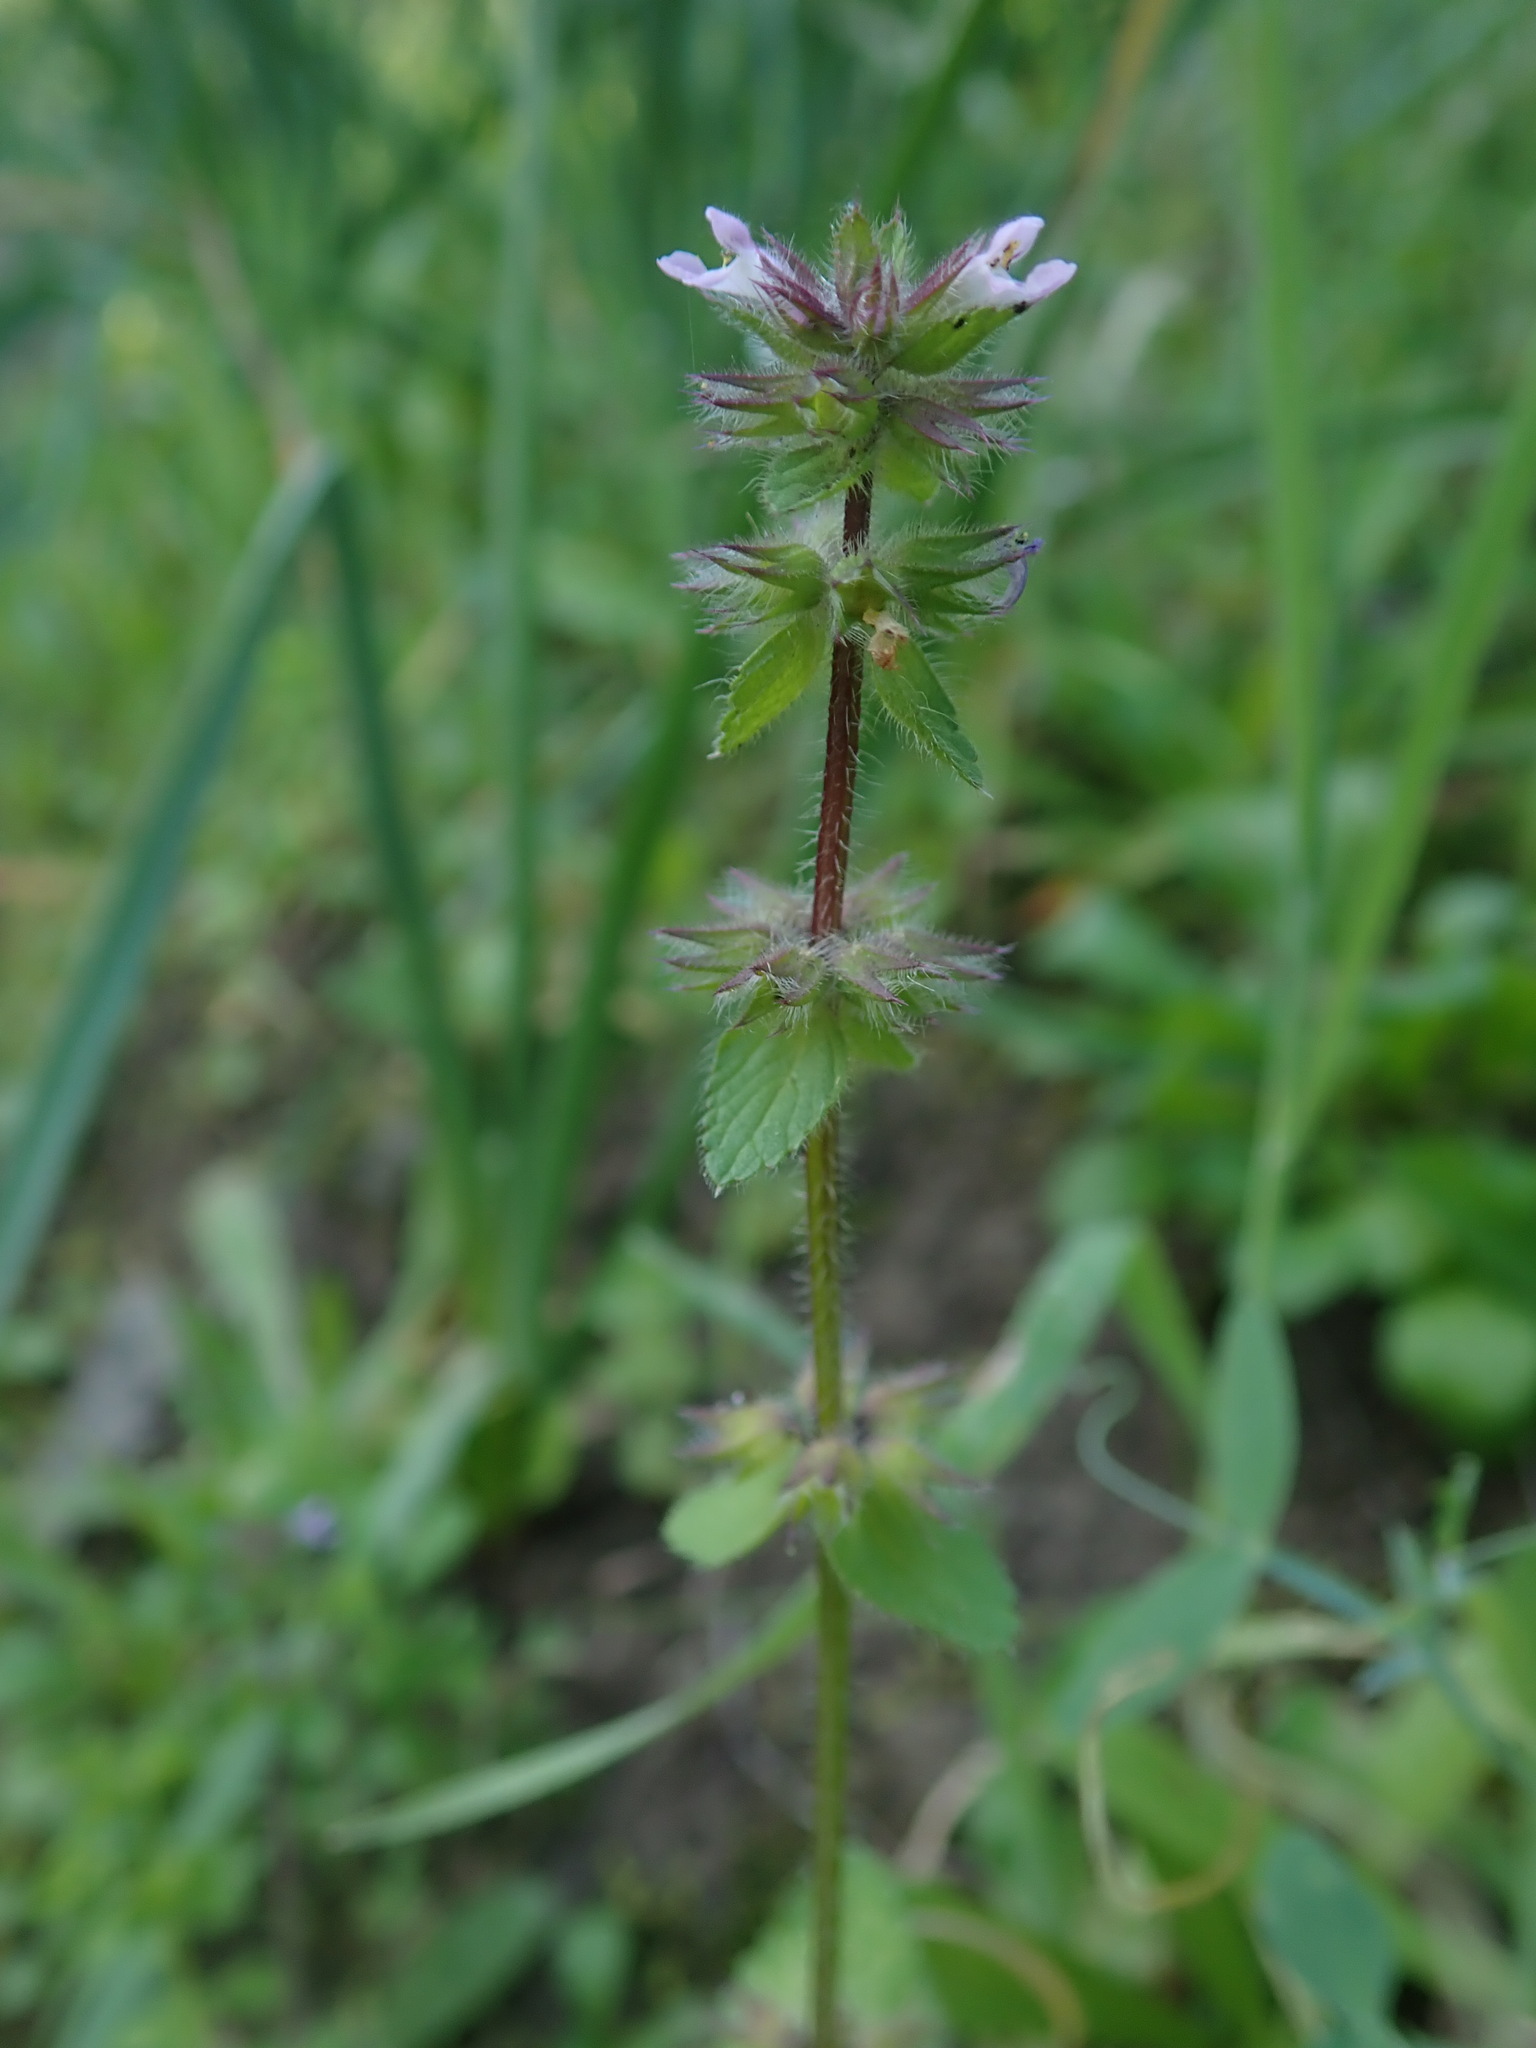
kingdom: Plantae
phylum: Tracheophyta
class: Magnoliopsida
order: Lamiales
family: Lamiaceae
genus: Stachys
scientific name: Stachys arvensis
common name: Field woundwort
